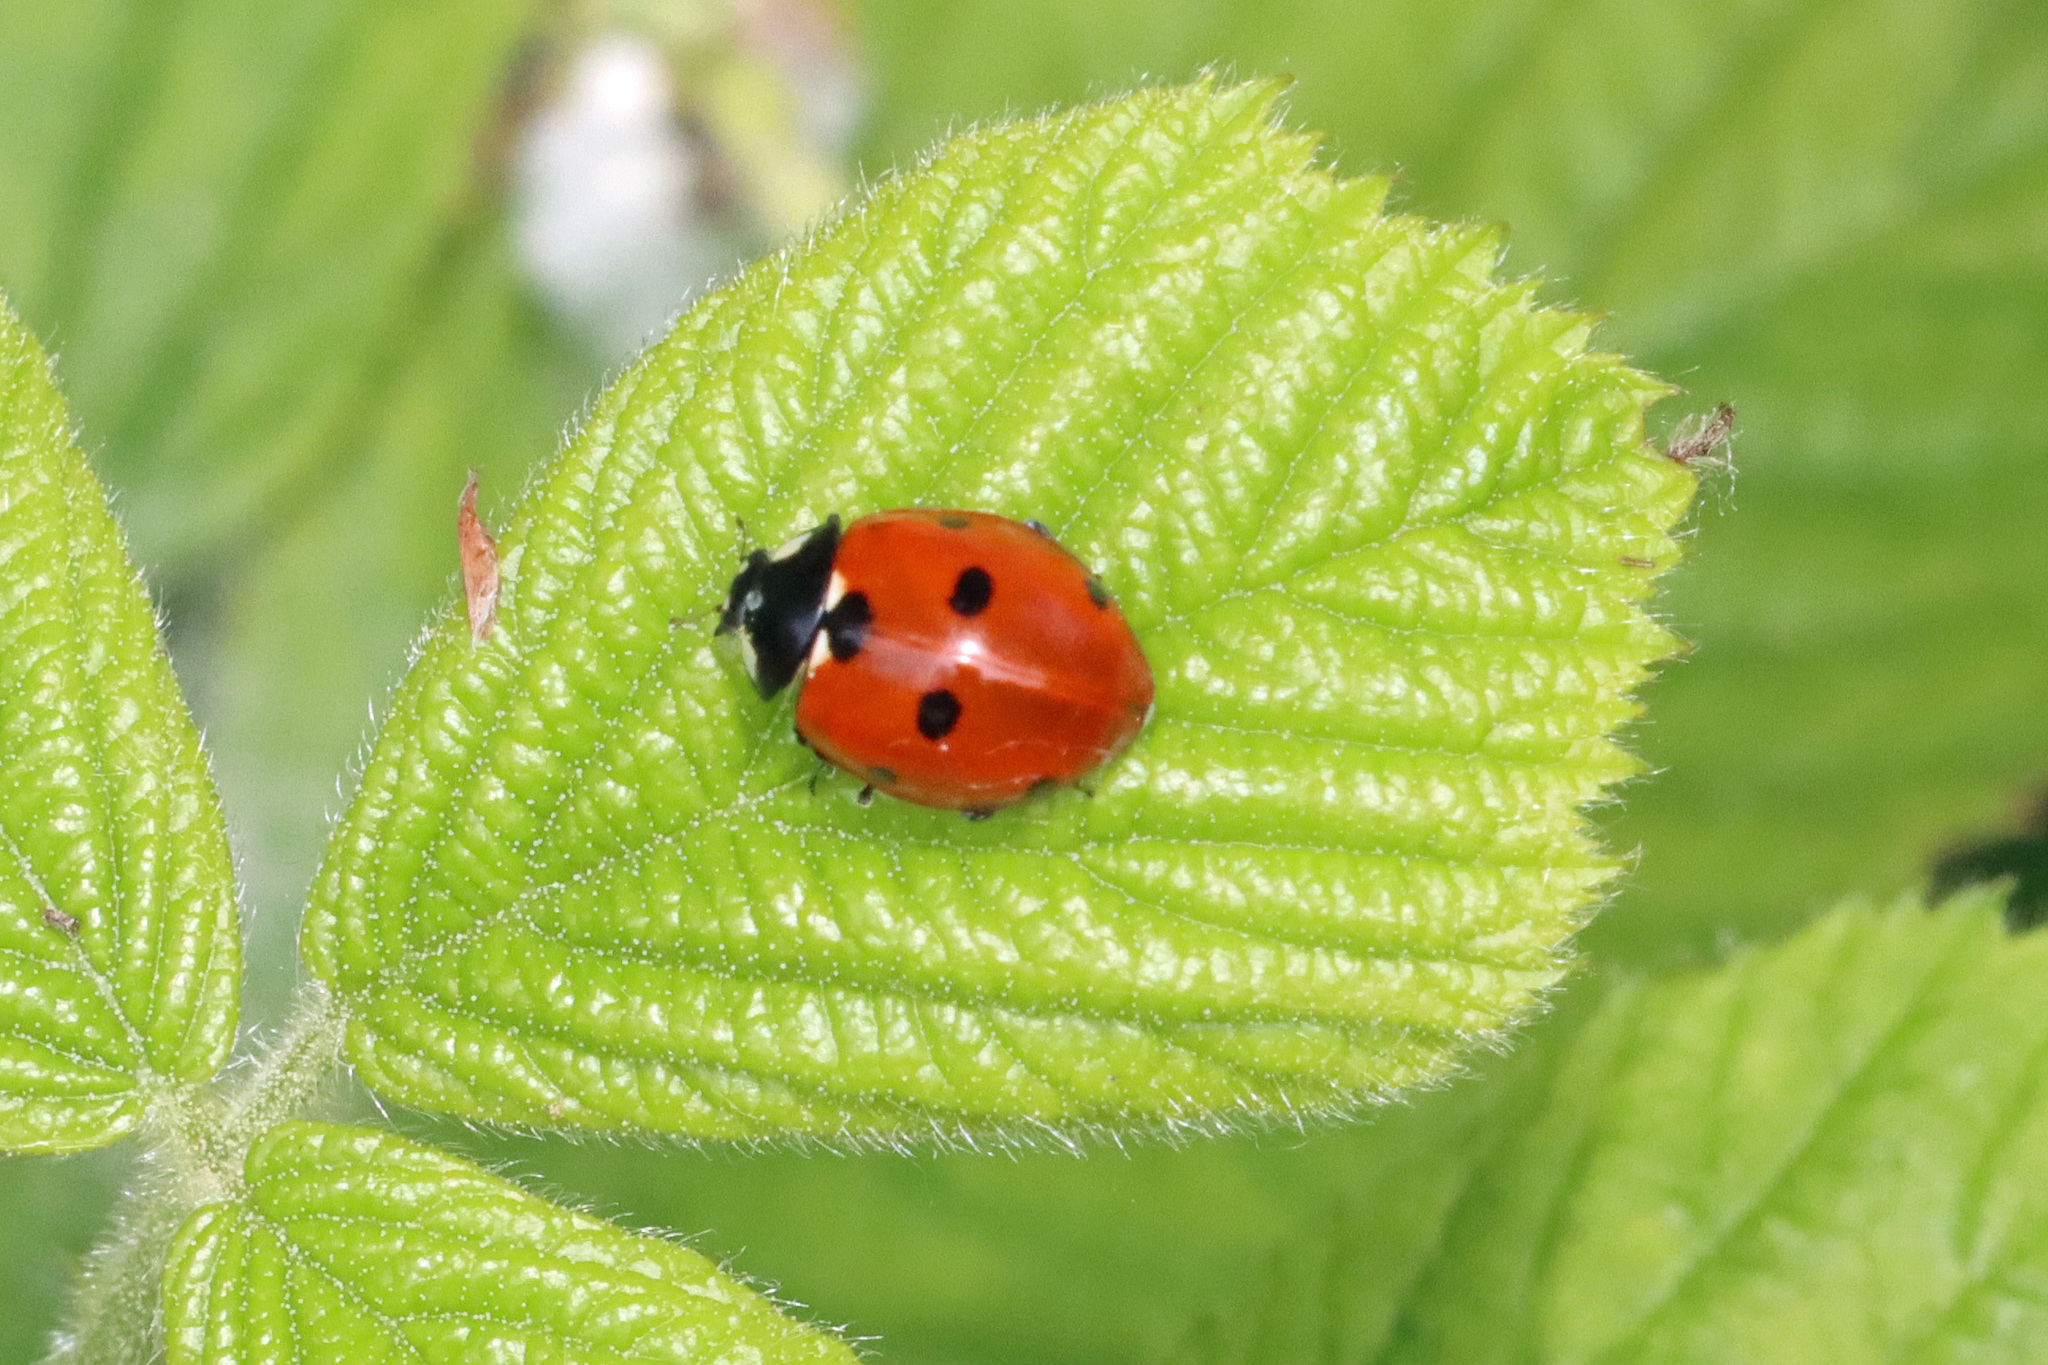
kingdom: Animalia
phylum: Arthropoda
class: Insecta
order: Coleoptera
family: Coccinellidae
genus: Coccinella
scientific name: Coccinella septempunctata
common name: Sevenspotted lady beetle
